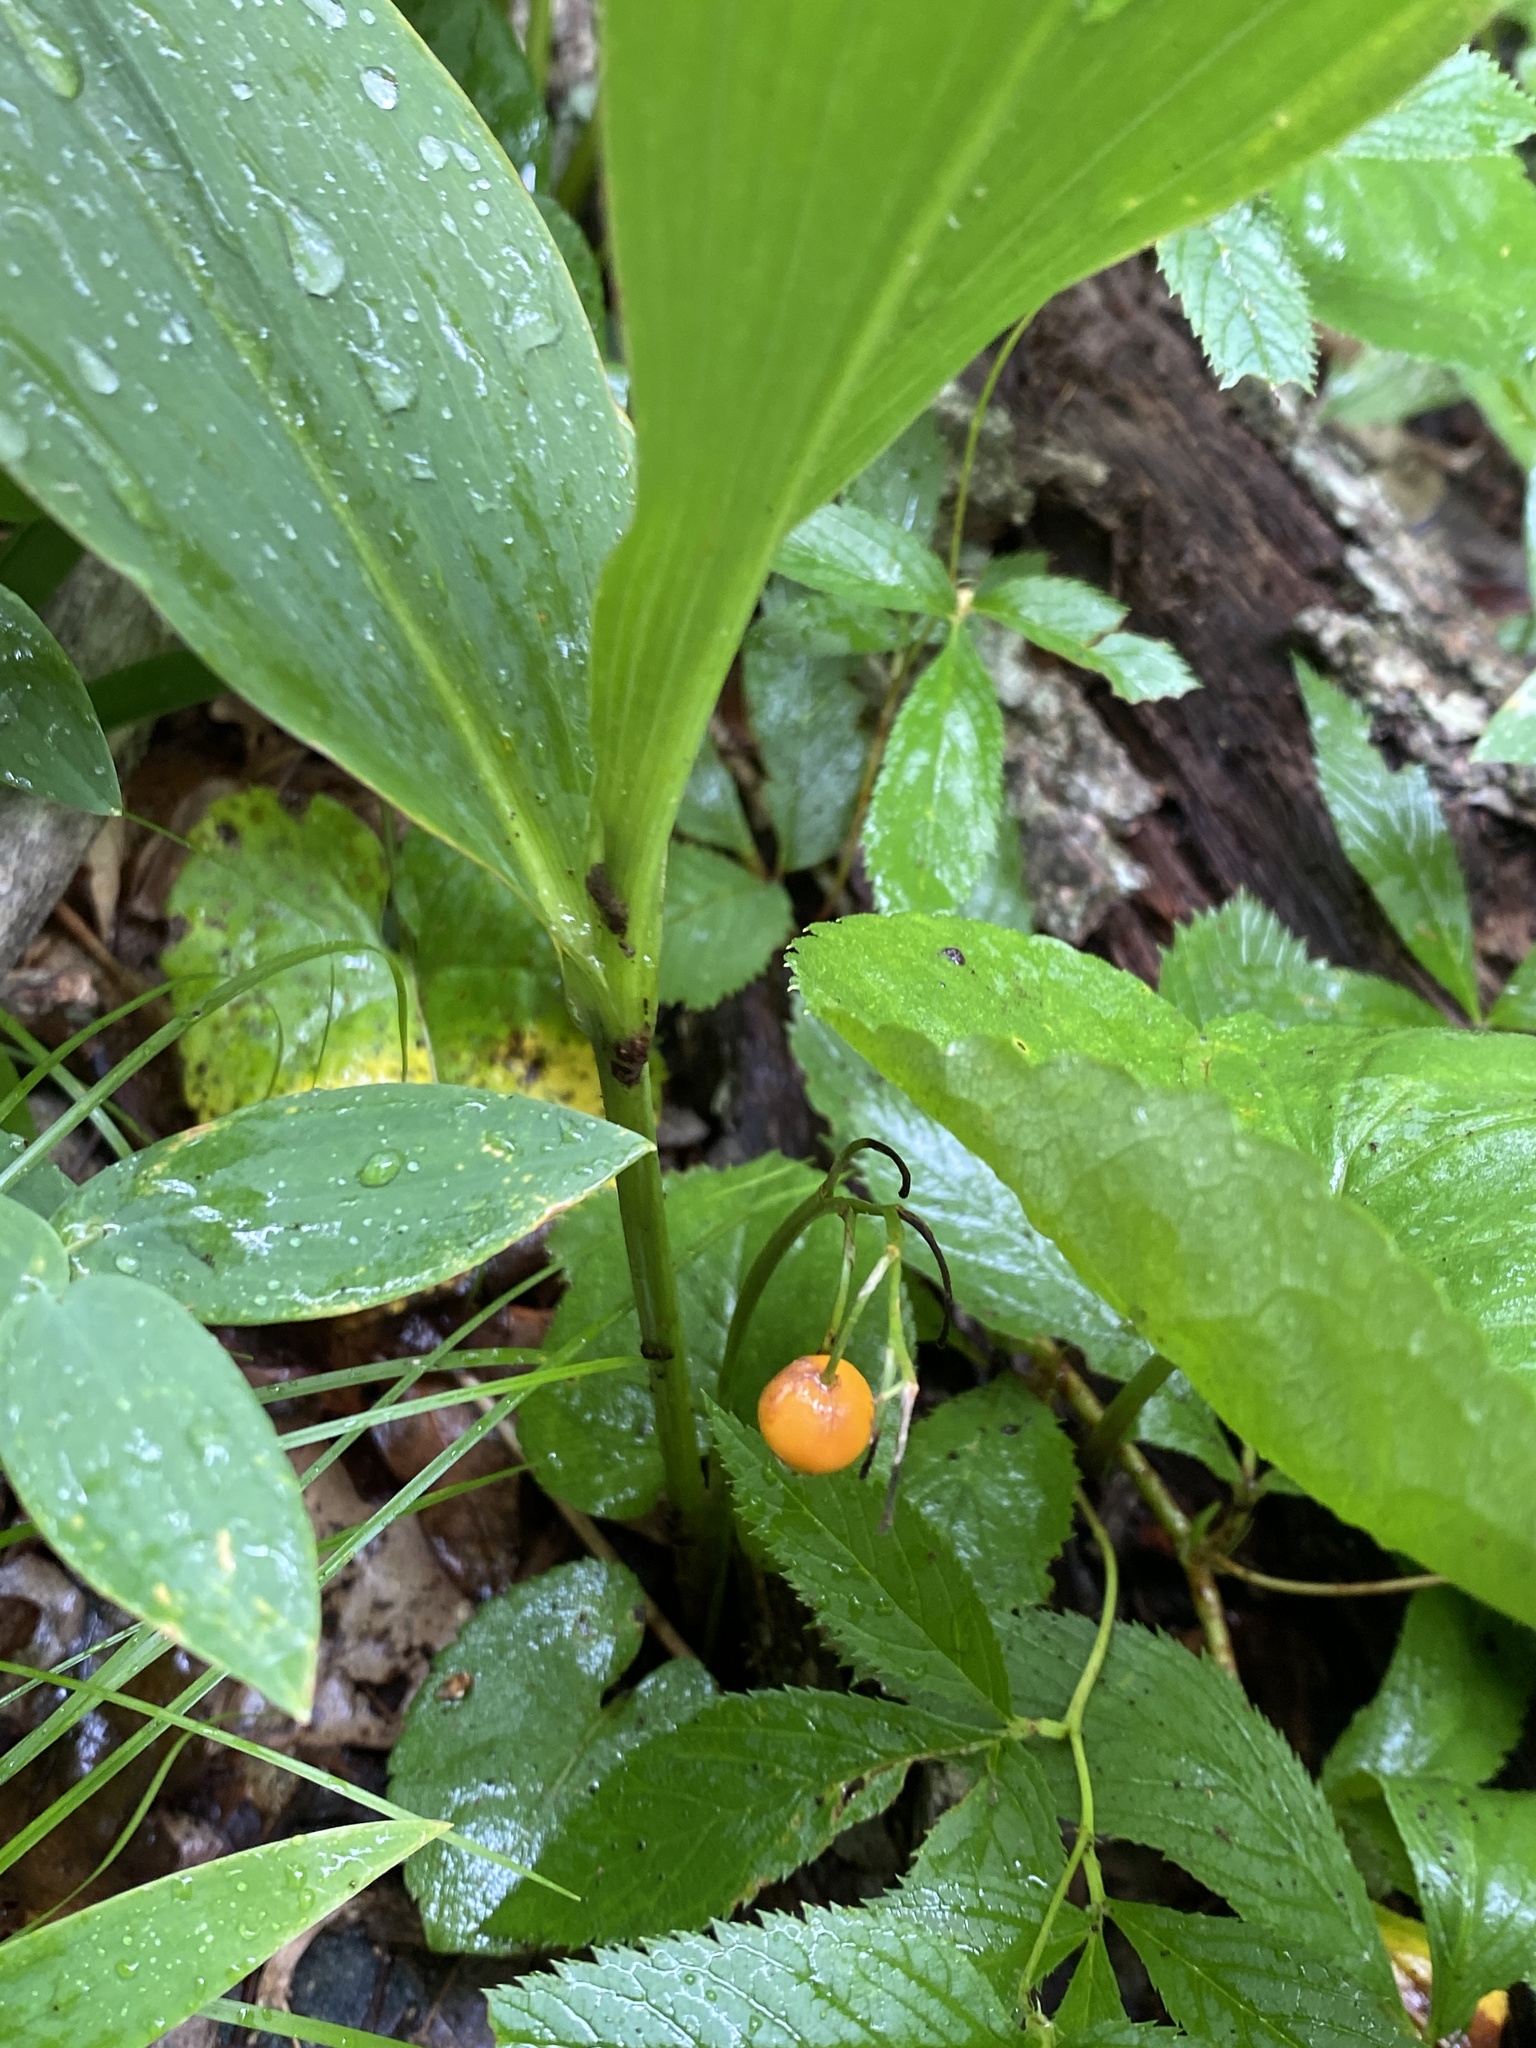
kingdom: Plantae
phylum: Tracheophyta
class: Liliopsida
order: Asparagales
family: Asparagaceae
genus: Convallaria
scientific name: Convallaria pseudomajalis
